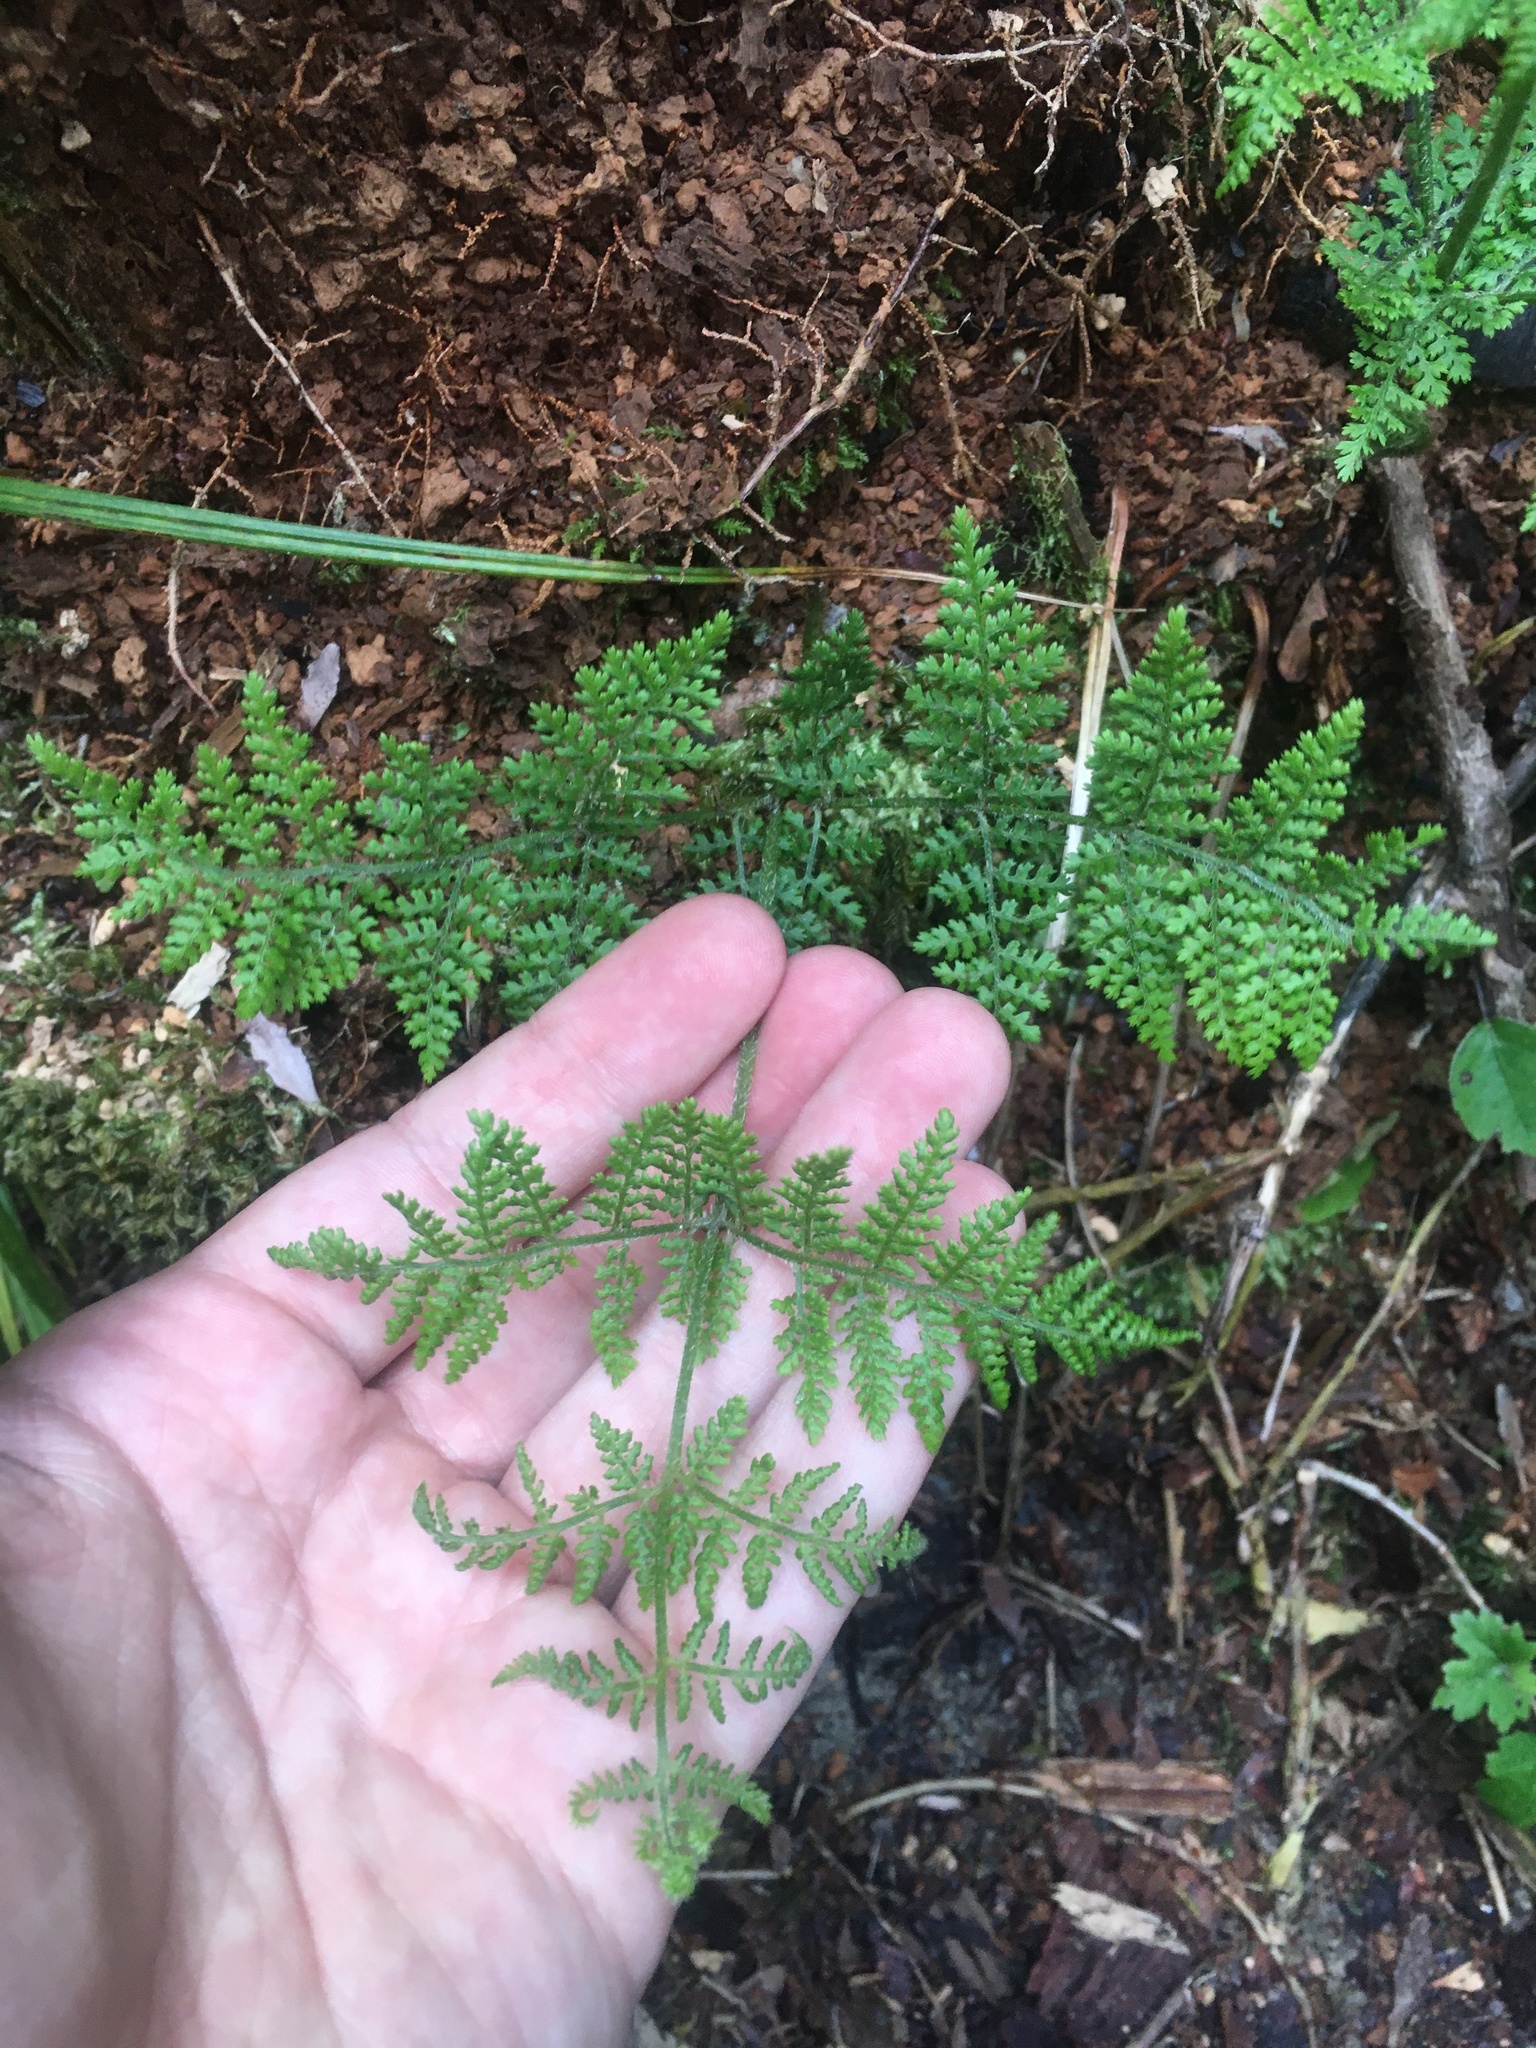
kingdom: Plantae
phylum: Tracheophyta
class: Polypodiopsida
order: Polypodiales
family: Dennstaedtiaceae
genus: Hypolepis
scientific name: Hypolepis millefolium
